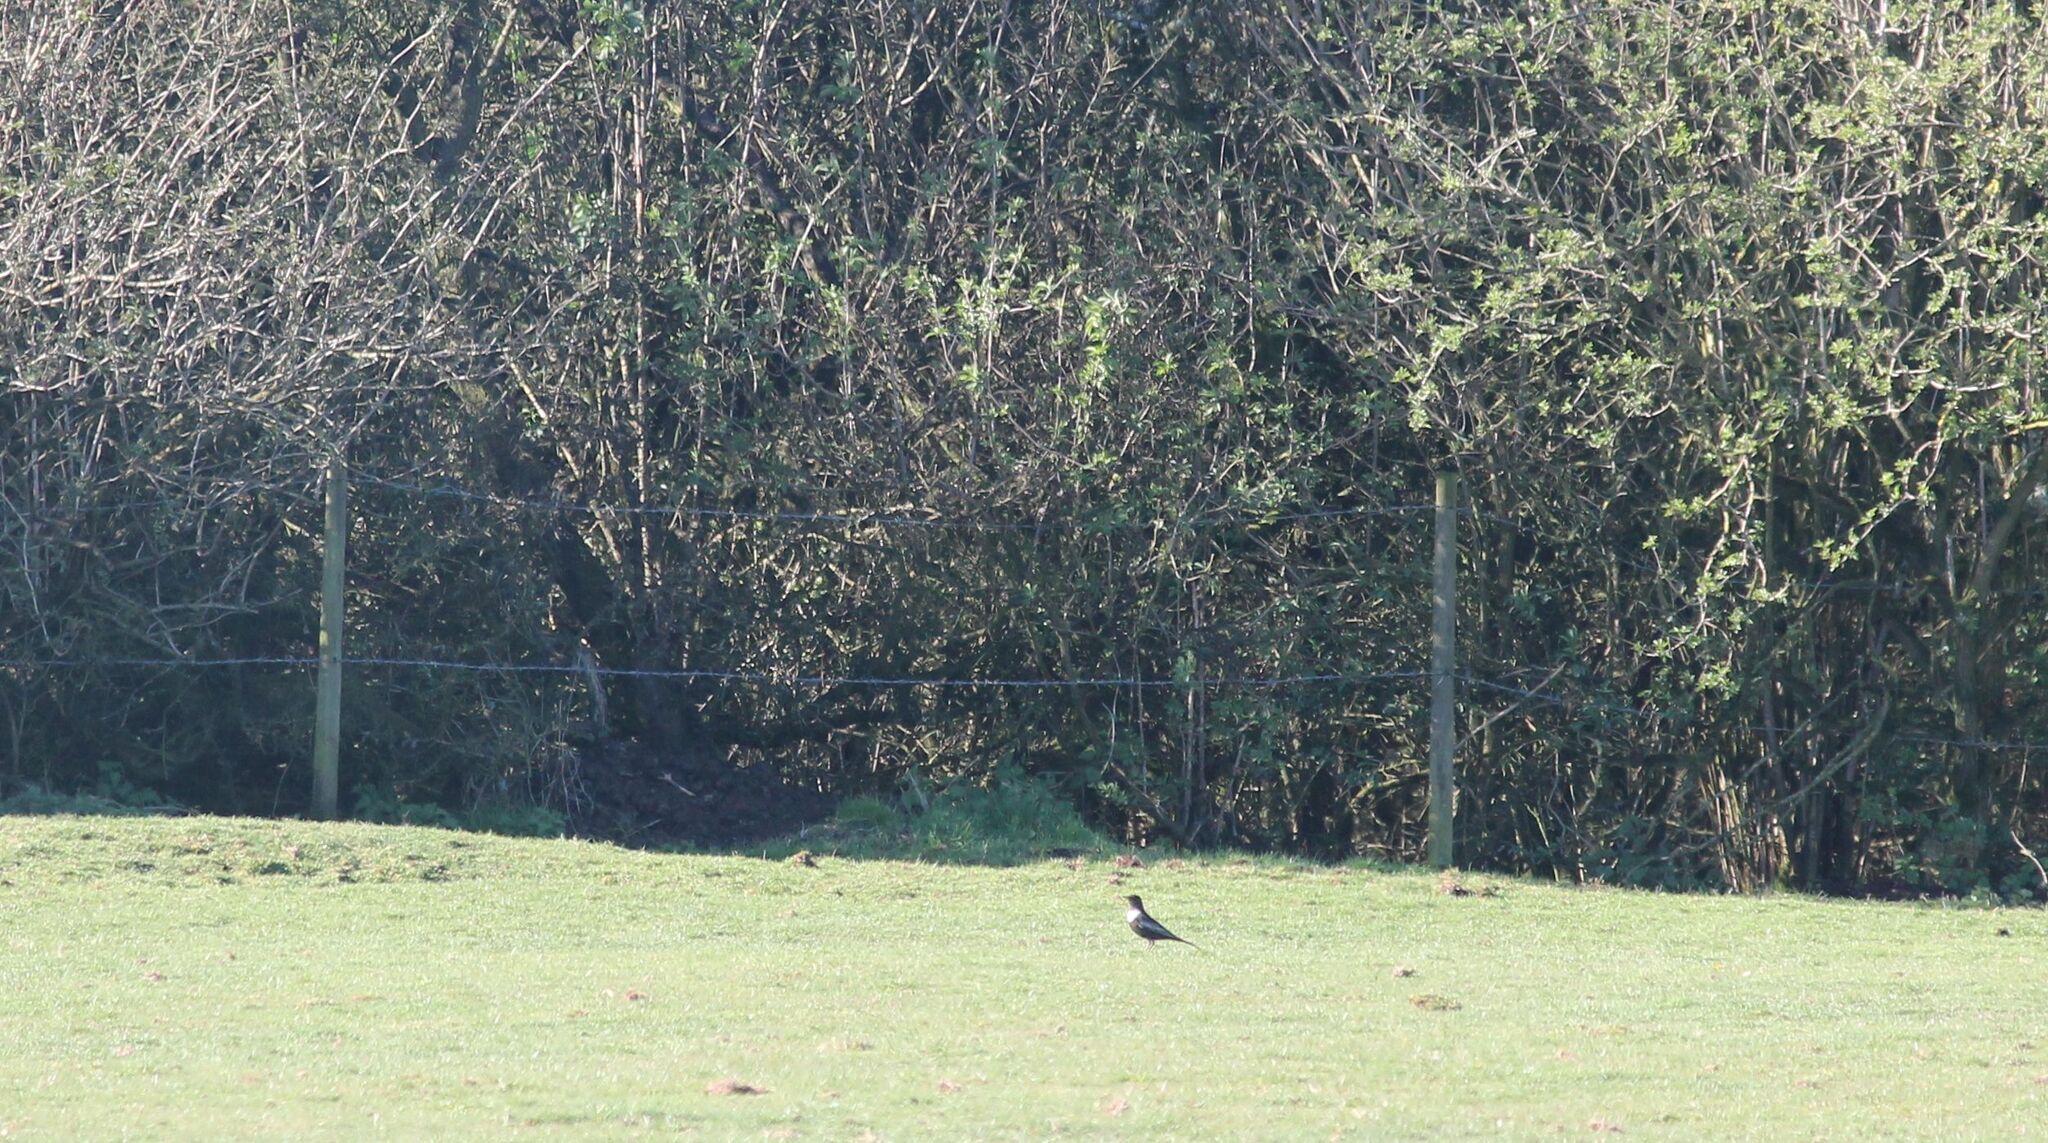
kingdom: Animalia
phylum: Chordata
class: Aves
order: Passeriformes
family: Turdidae
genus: Turdus
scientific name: Turdus torquatus
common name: Ring ouzel
